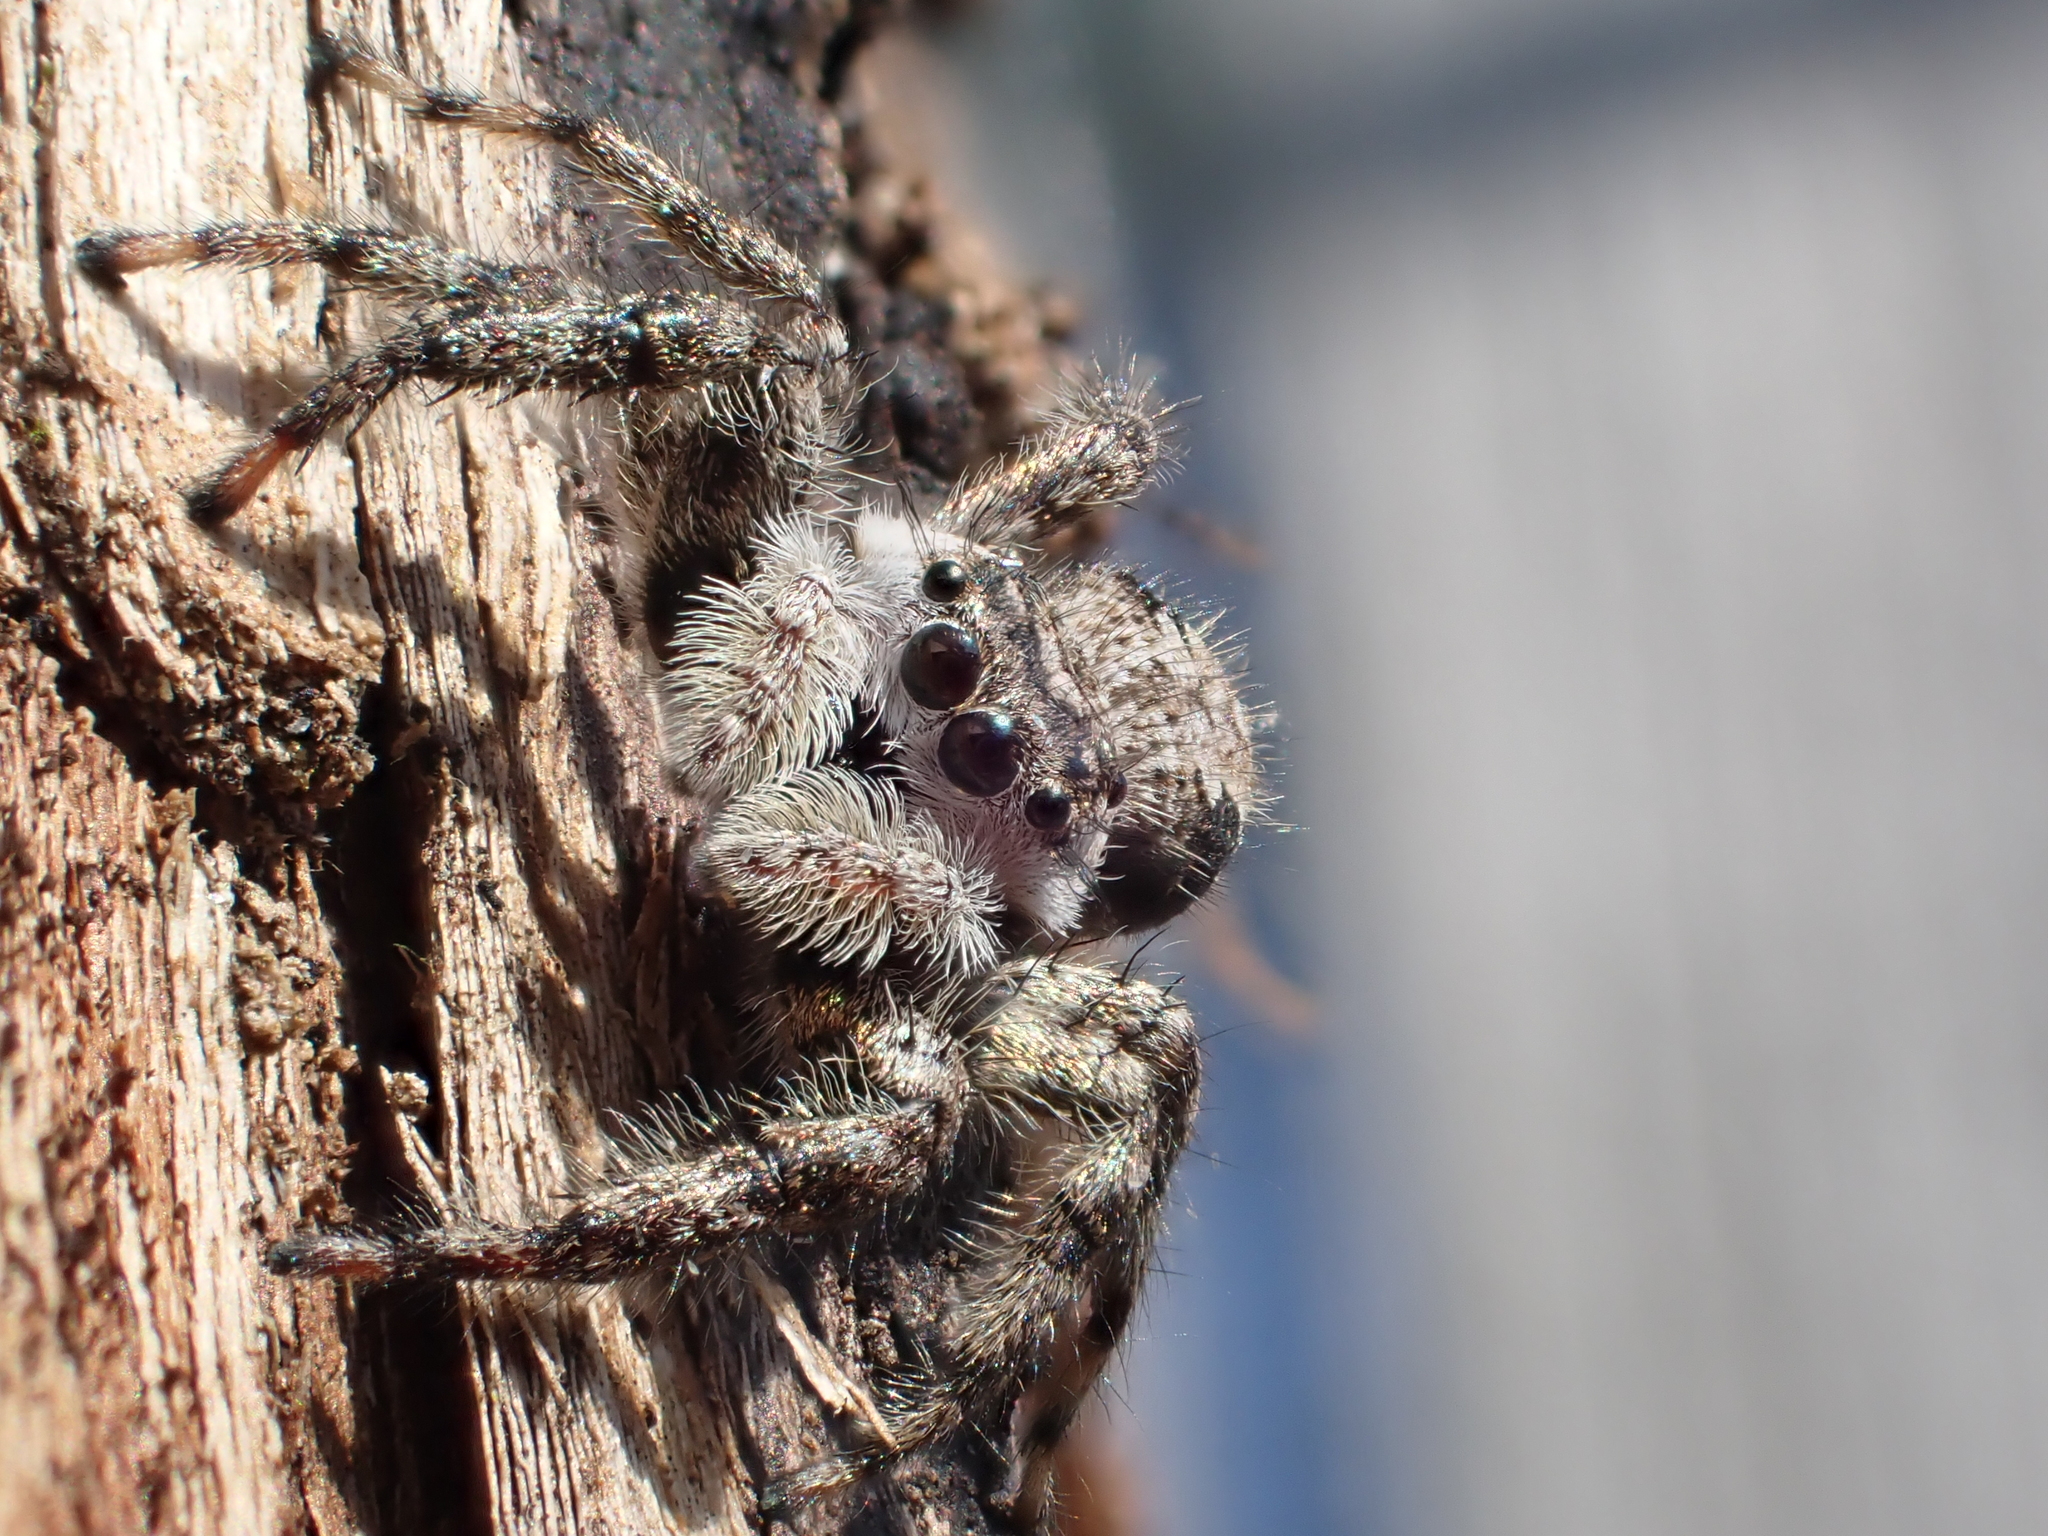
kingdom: Animalia
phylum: Arthropoda
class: Arachnida
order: Araneae
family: Salticidae
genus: Platycryptus
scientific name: Platycryptus undatus
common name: Tan jumping spider
